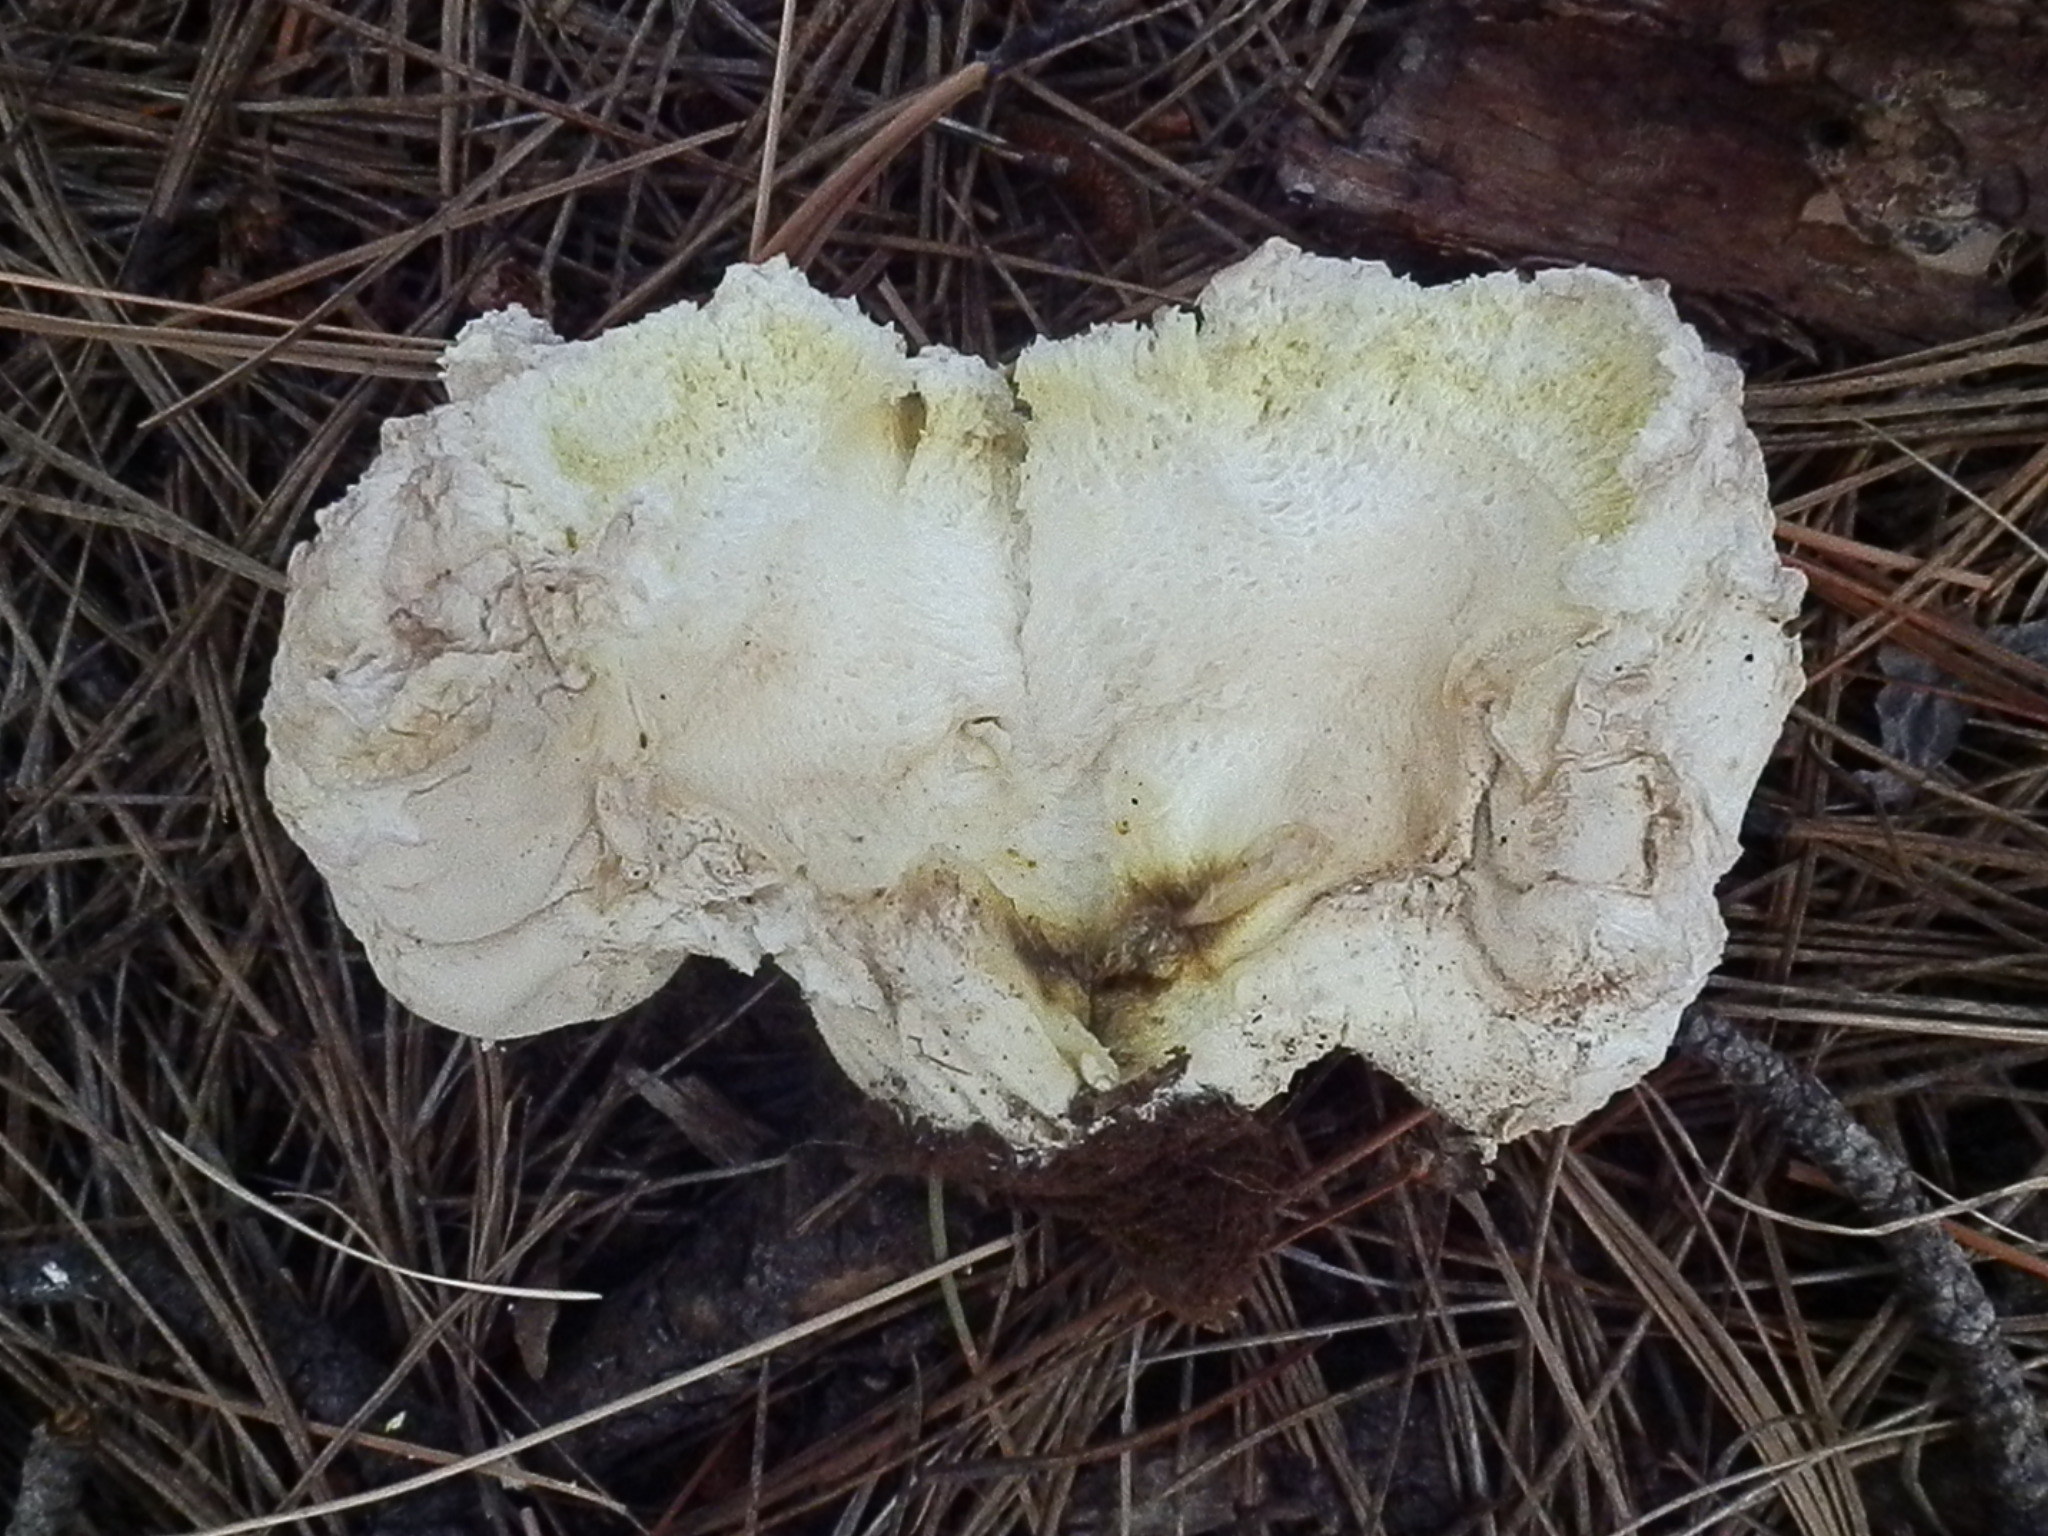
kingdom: Fungi
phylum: Basidiomycota
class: Agaricomycetes
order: Agaricales
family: Lycoperdaceae
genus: Calvatia
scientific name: Calvatia booniana
